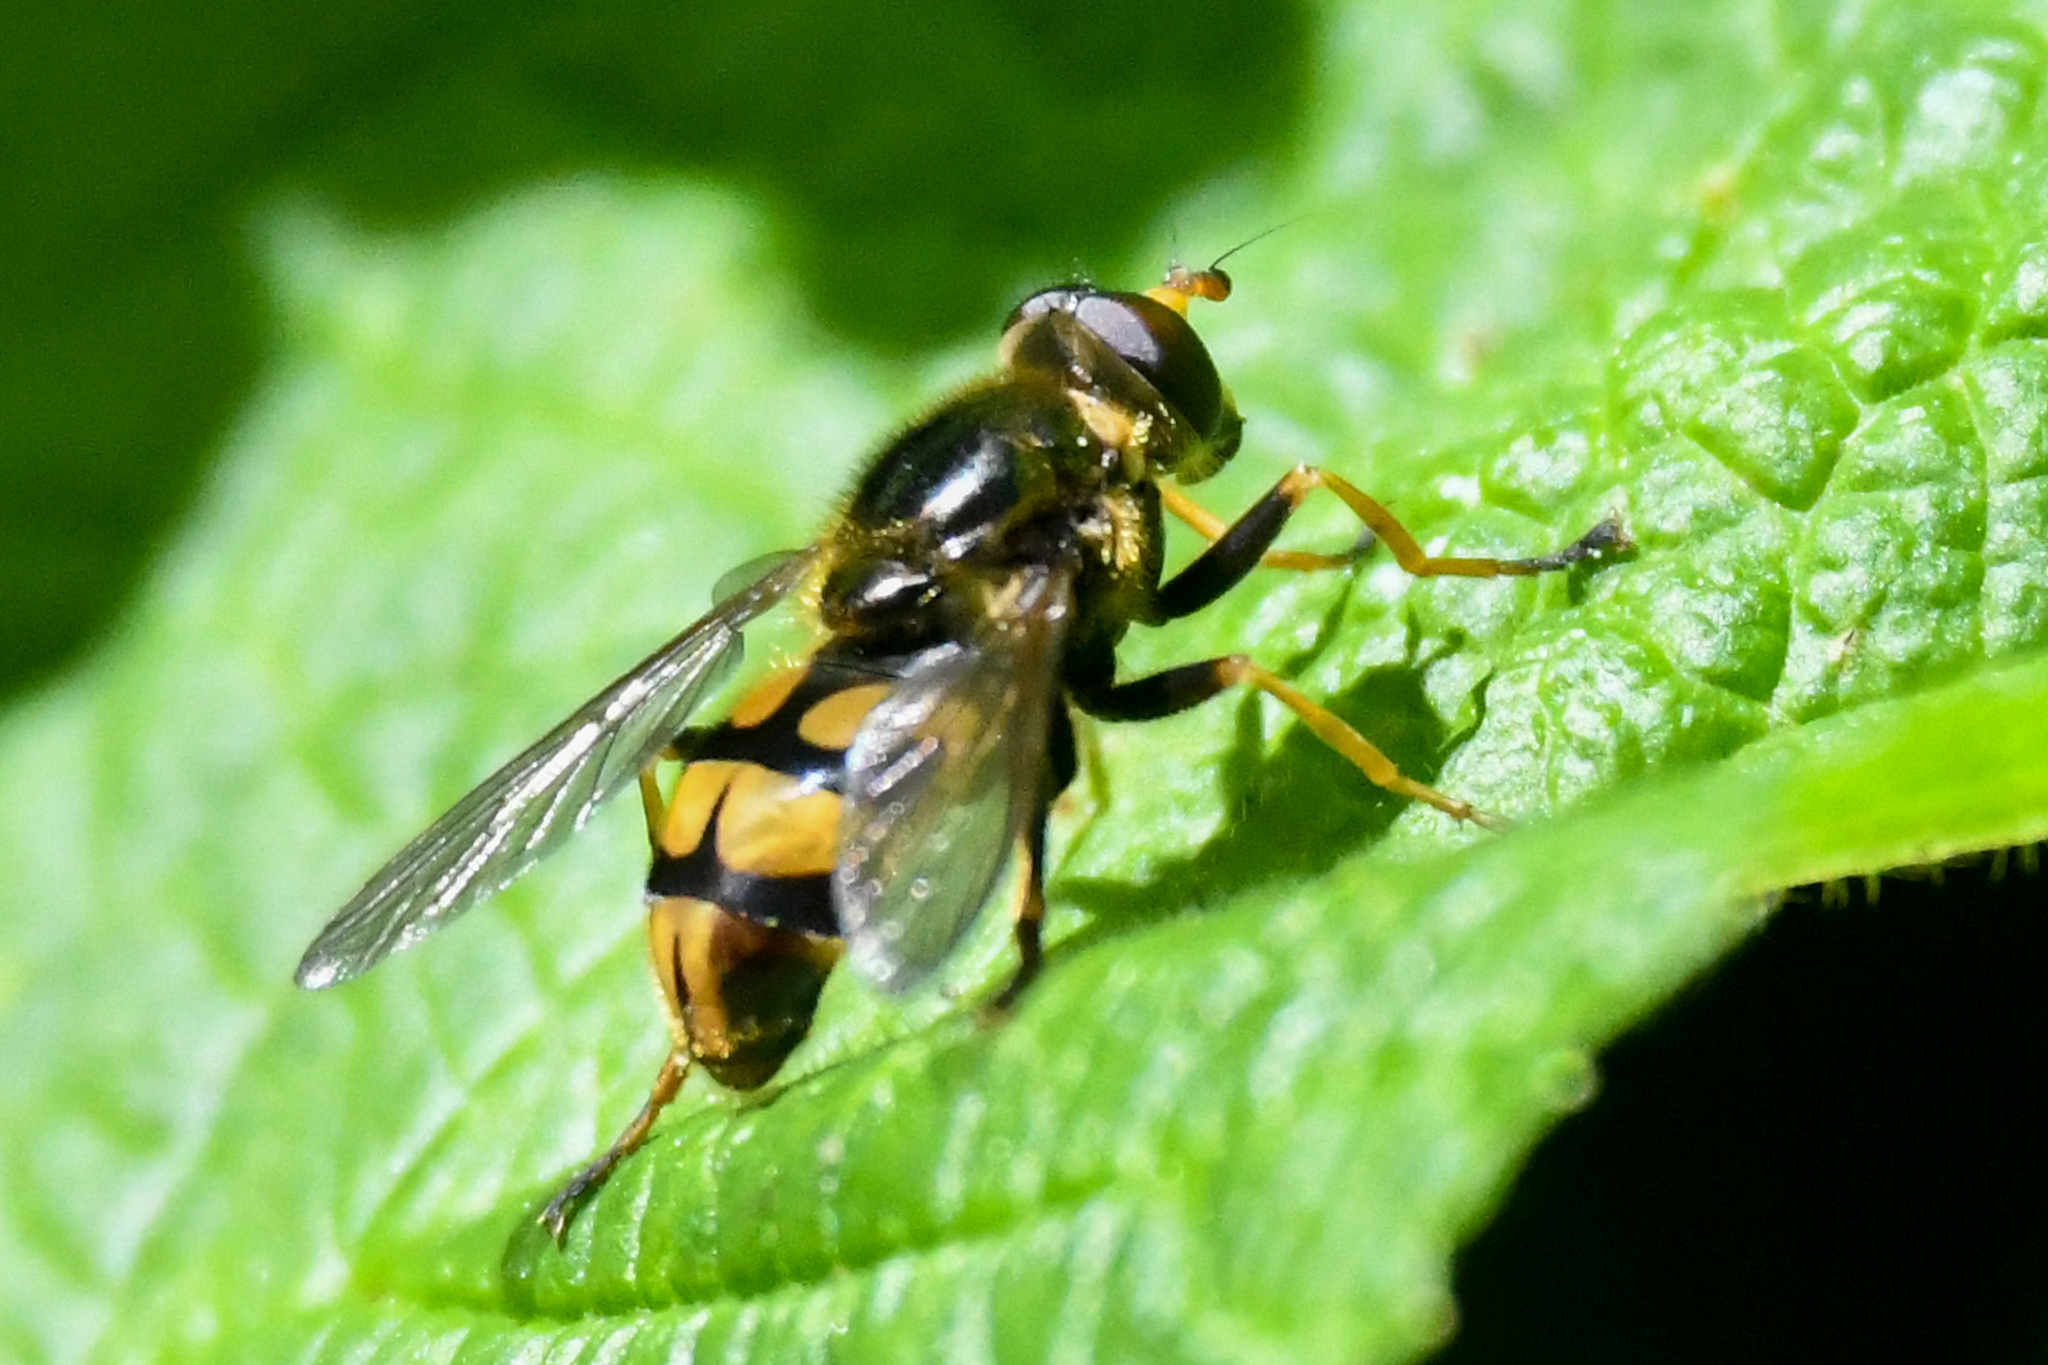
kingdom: Animalia
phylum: Arthropoda
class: Insecta
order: Diptera
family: Syrphidae
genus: Blera
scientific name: Blera scitula
